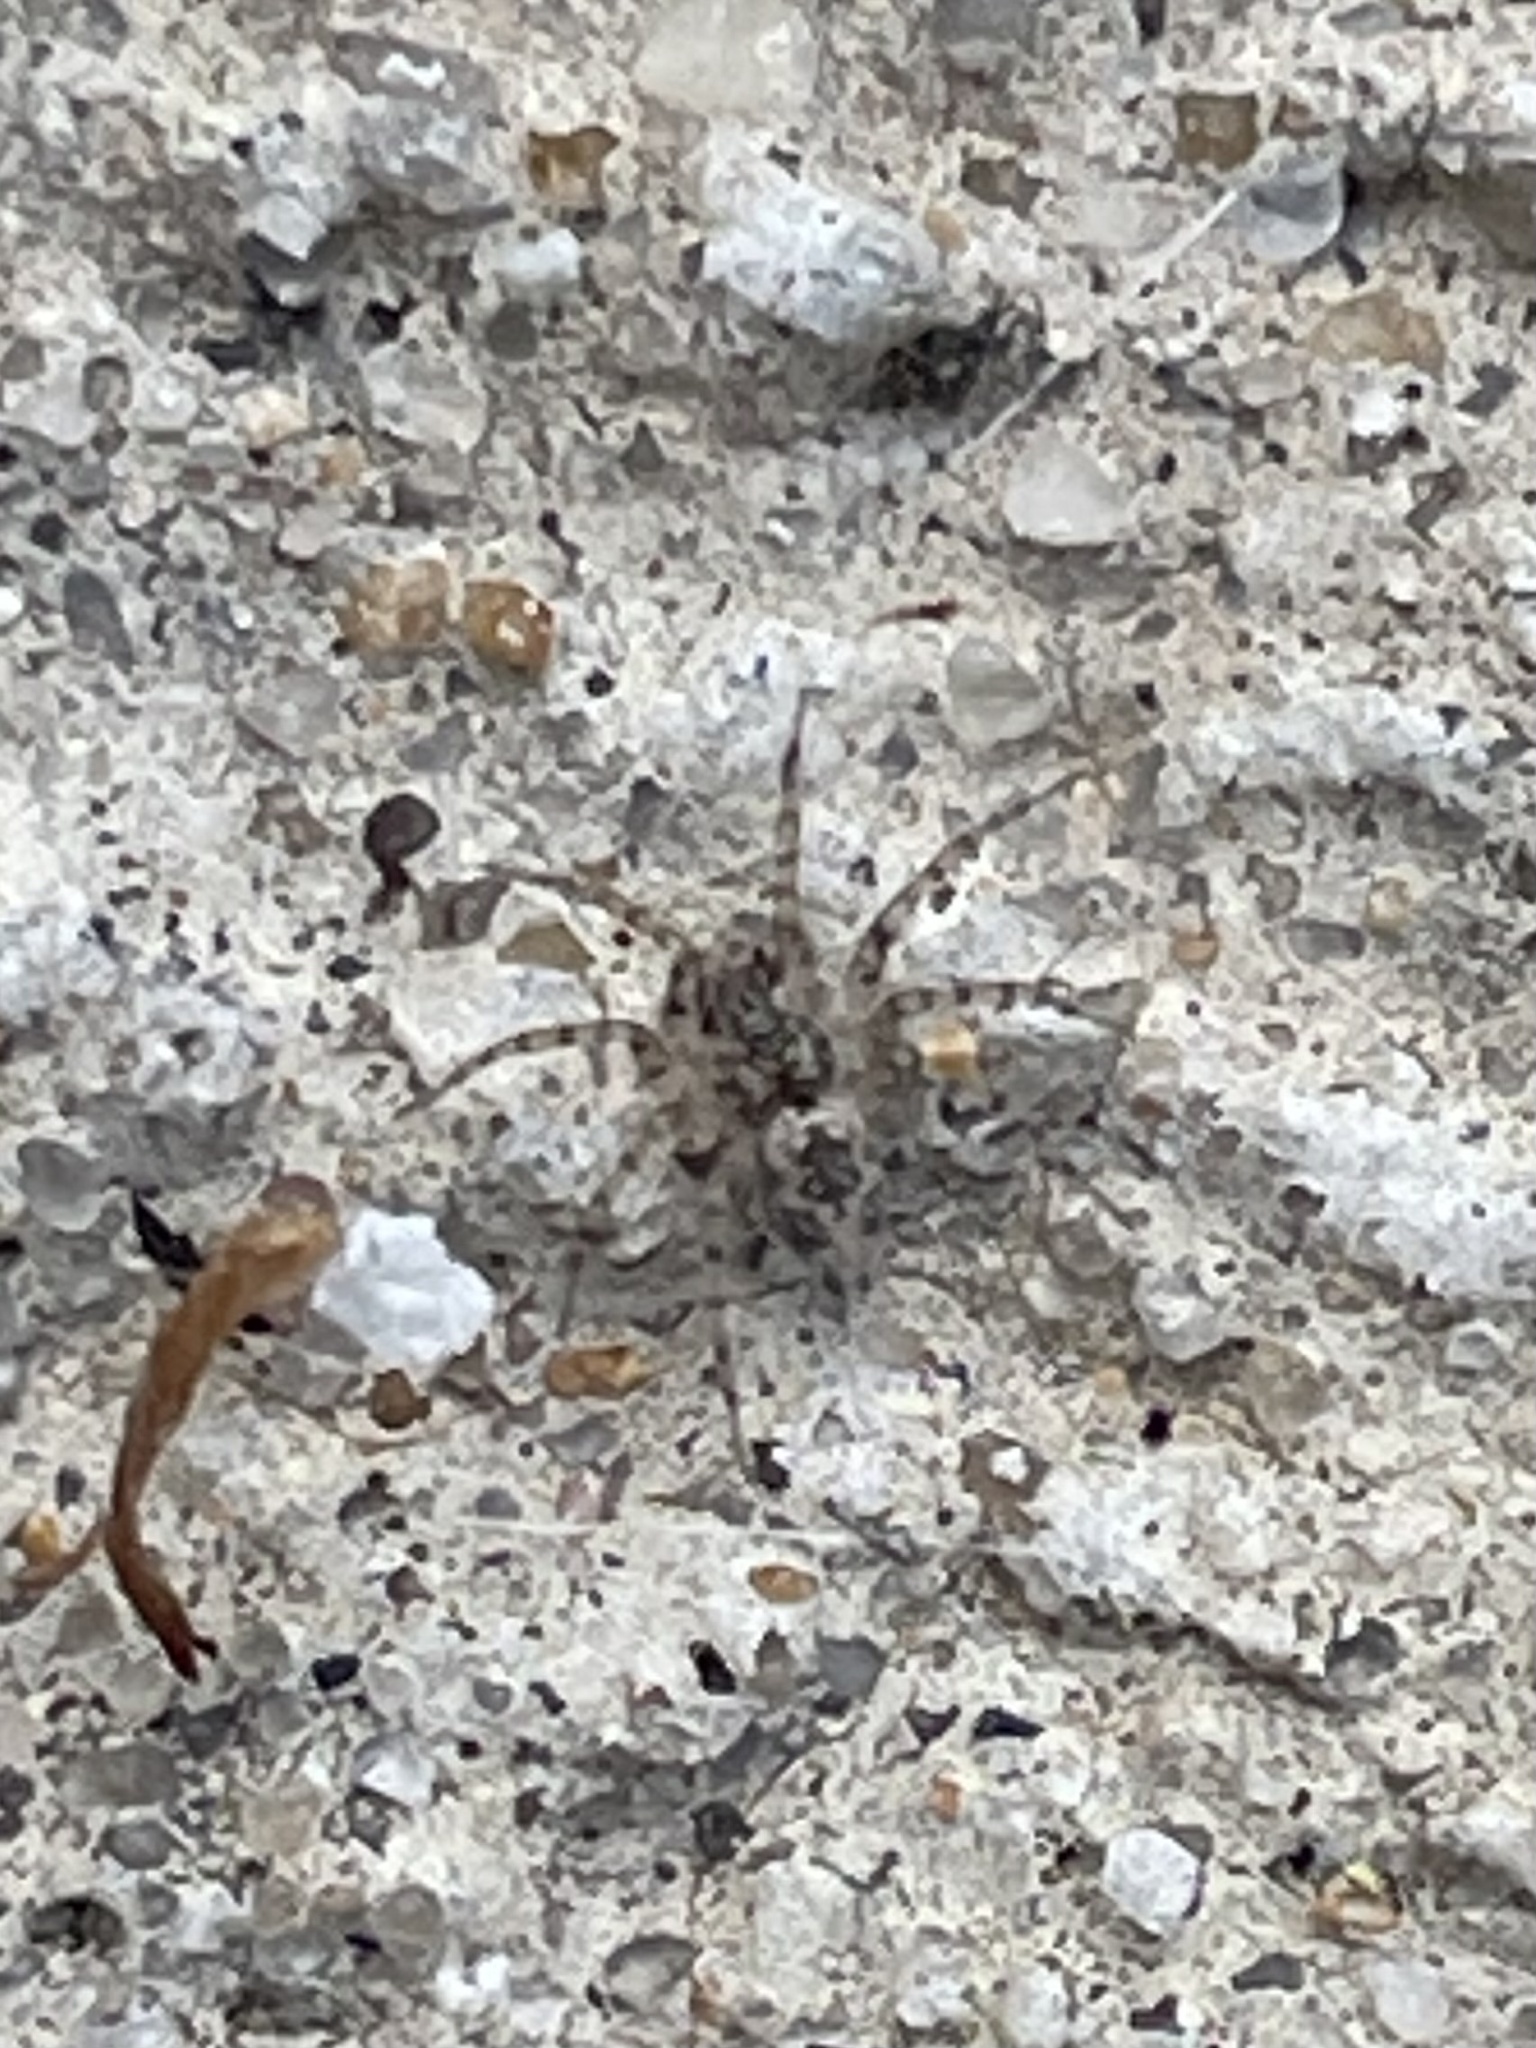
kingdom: Animalia
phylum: Arthropoda
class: Arachnida
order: Araneae
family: Oecobiidae
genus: Oecobius
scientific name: Oecobius
